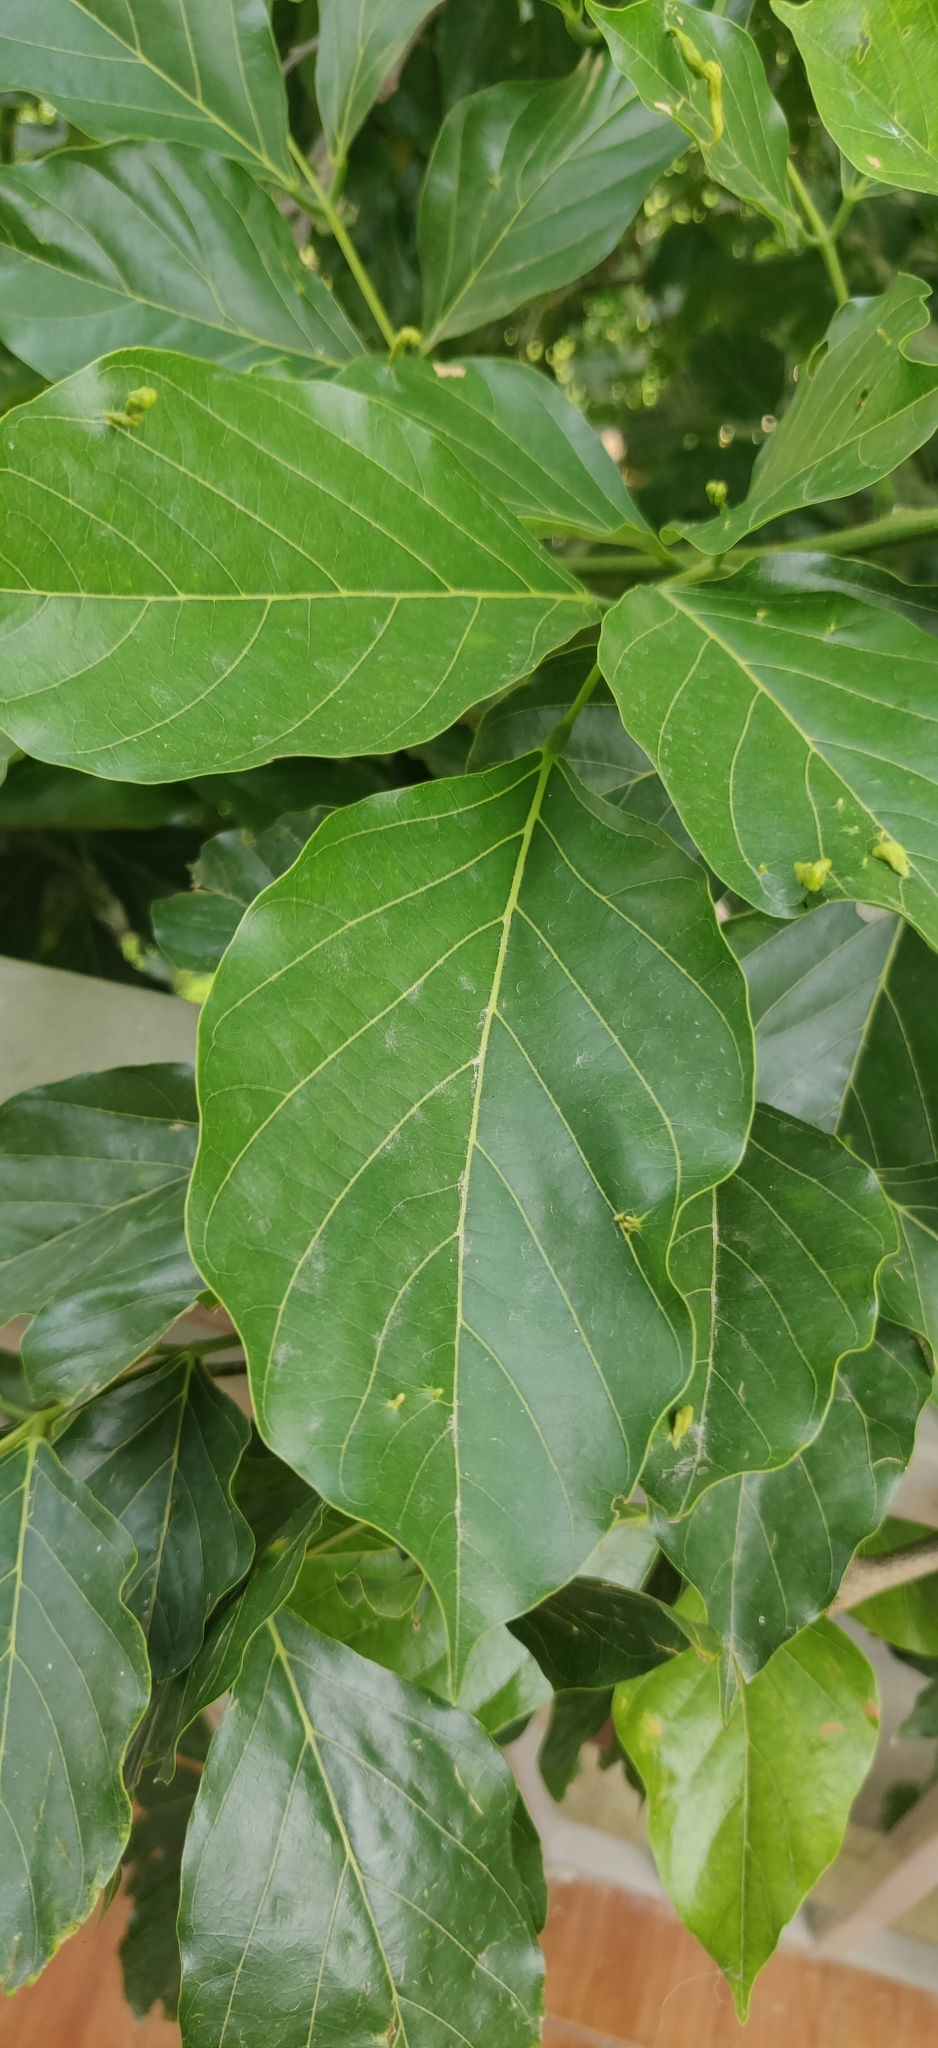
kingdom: Plantae
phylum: Tracheophyta
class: Magnoliopsida
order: Fabales
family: Fabaceae
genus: Pongamia
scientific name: Pongamia pinnata
